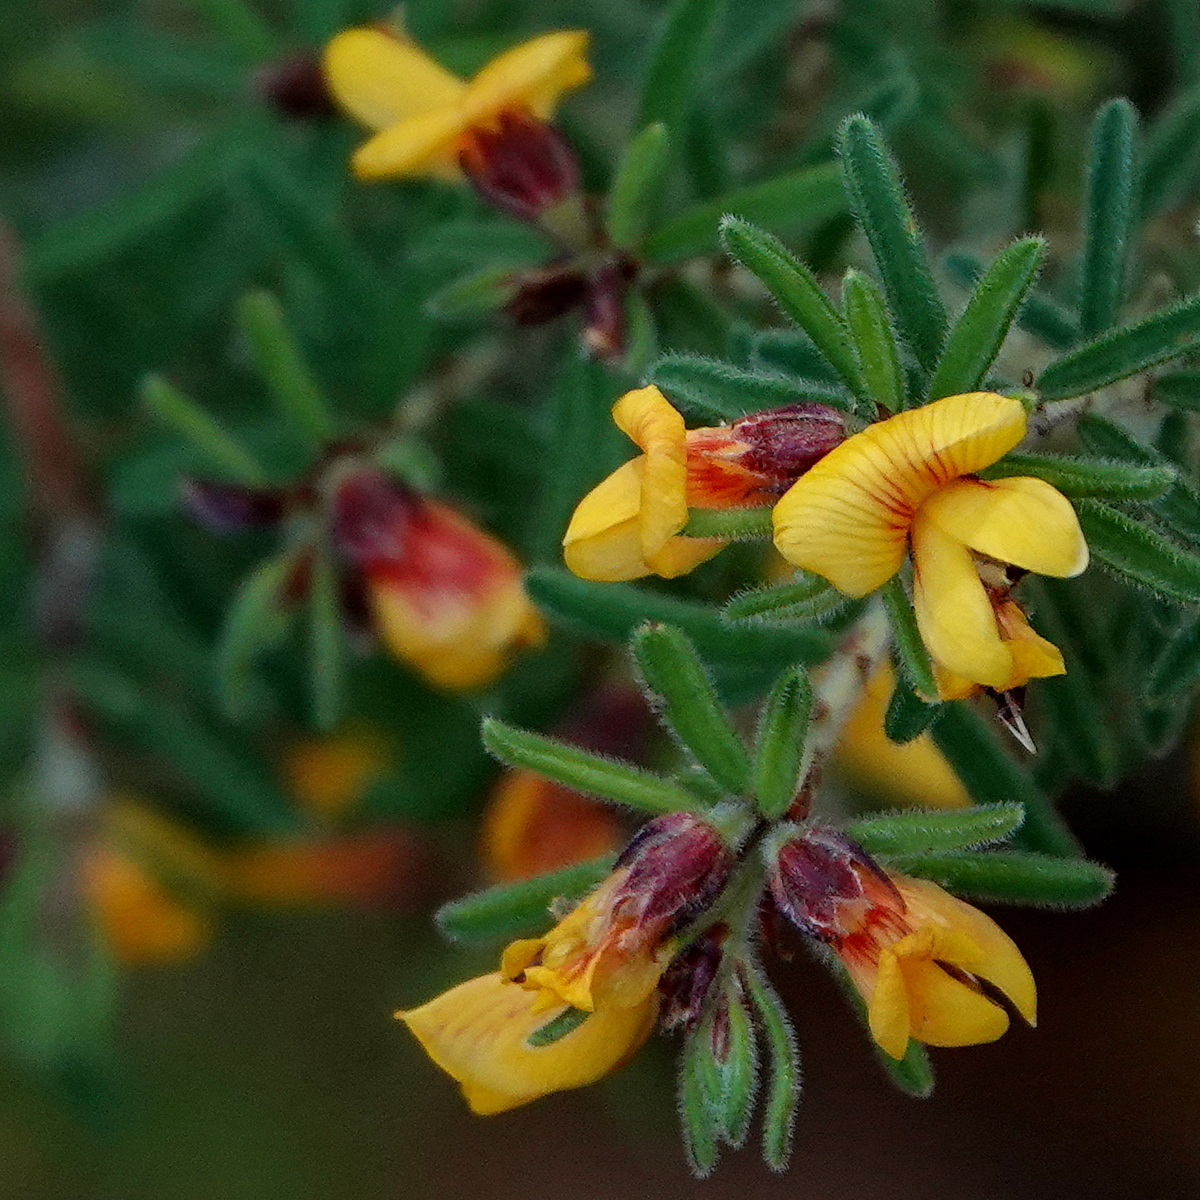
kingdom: Plantae
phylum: Tracheophyta
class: Magnoliopsida
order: Fabales
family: Fabaceae
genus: Pultenaea
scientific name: Pultenaea hispidula
